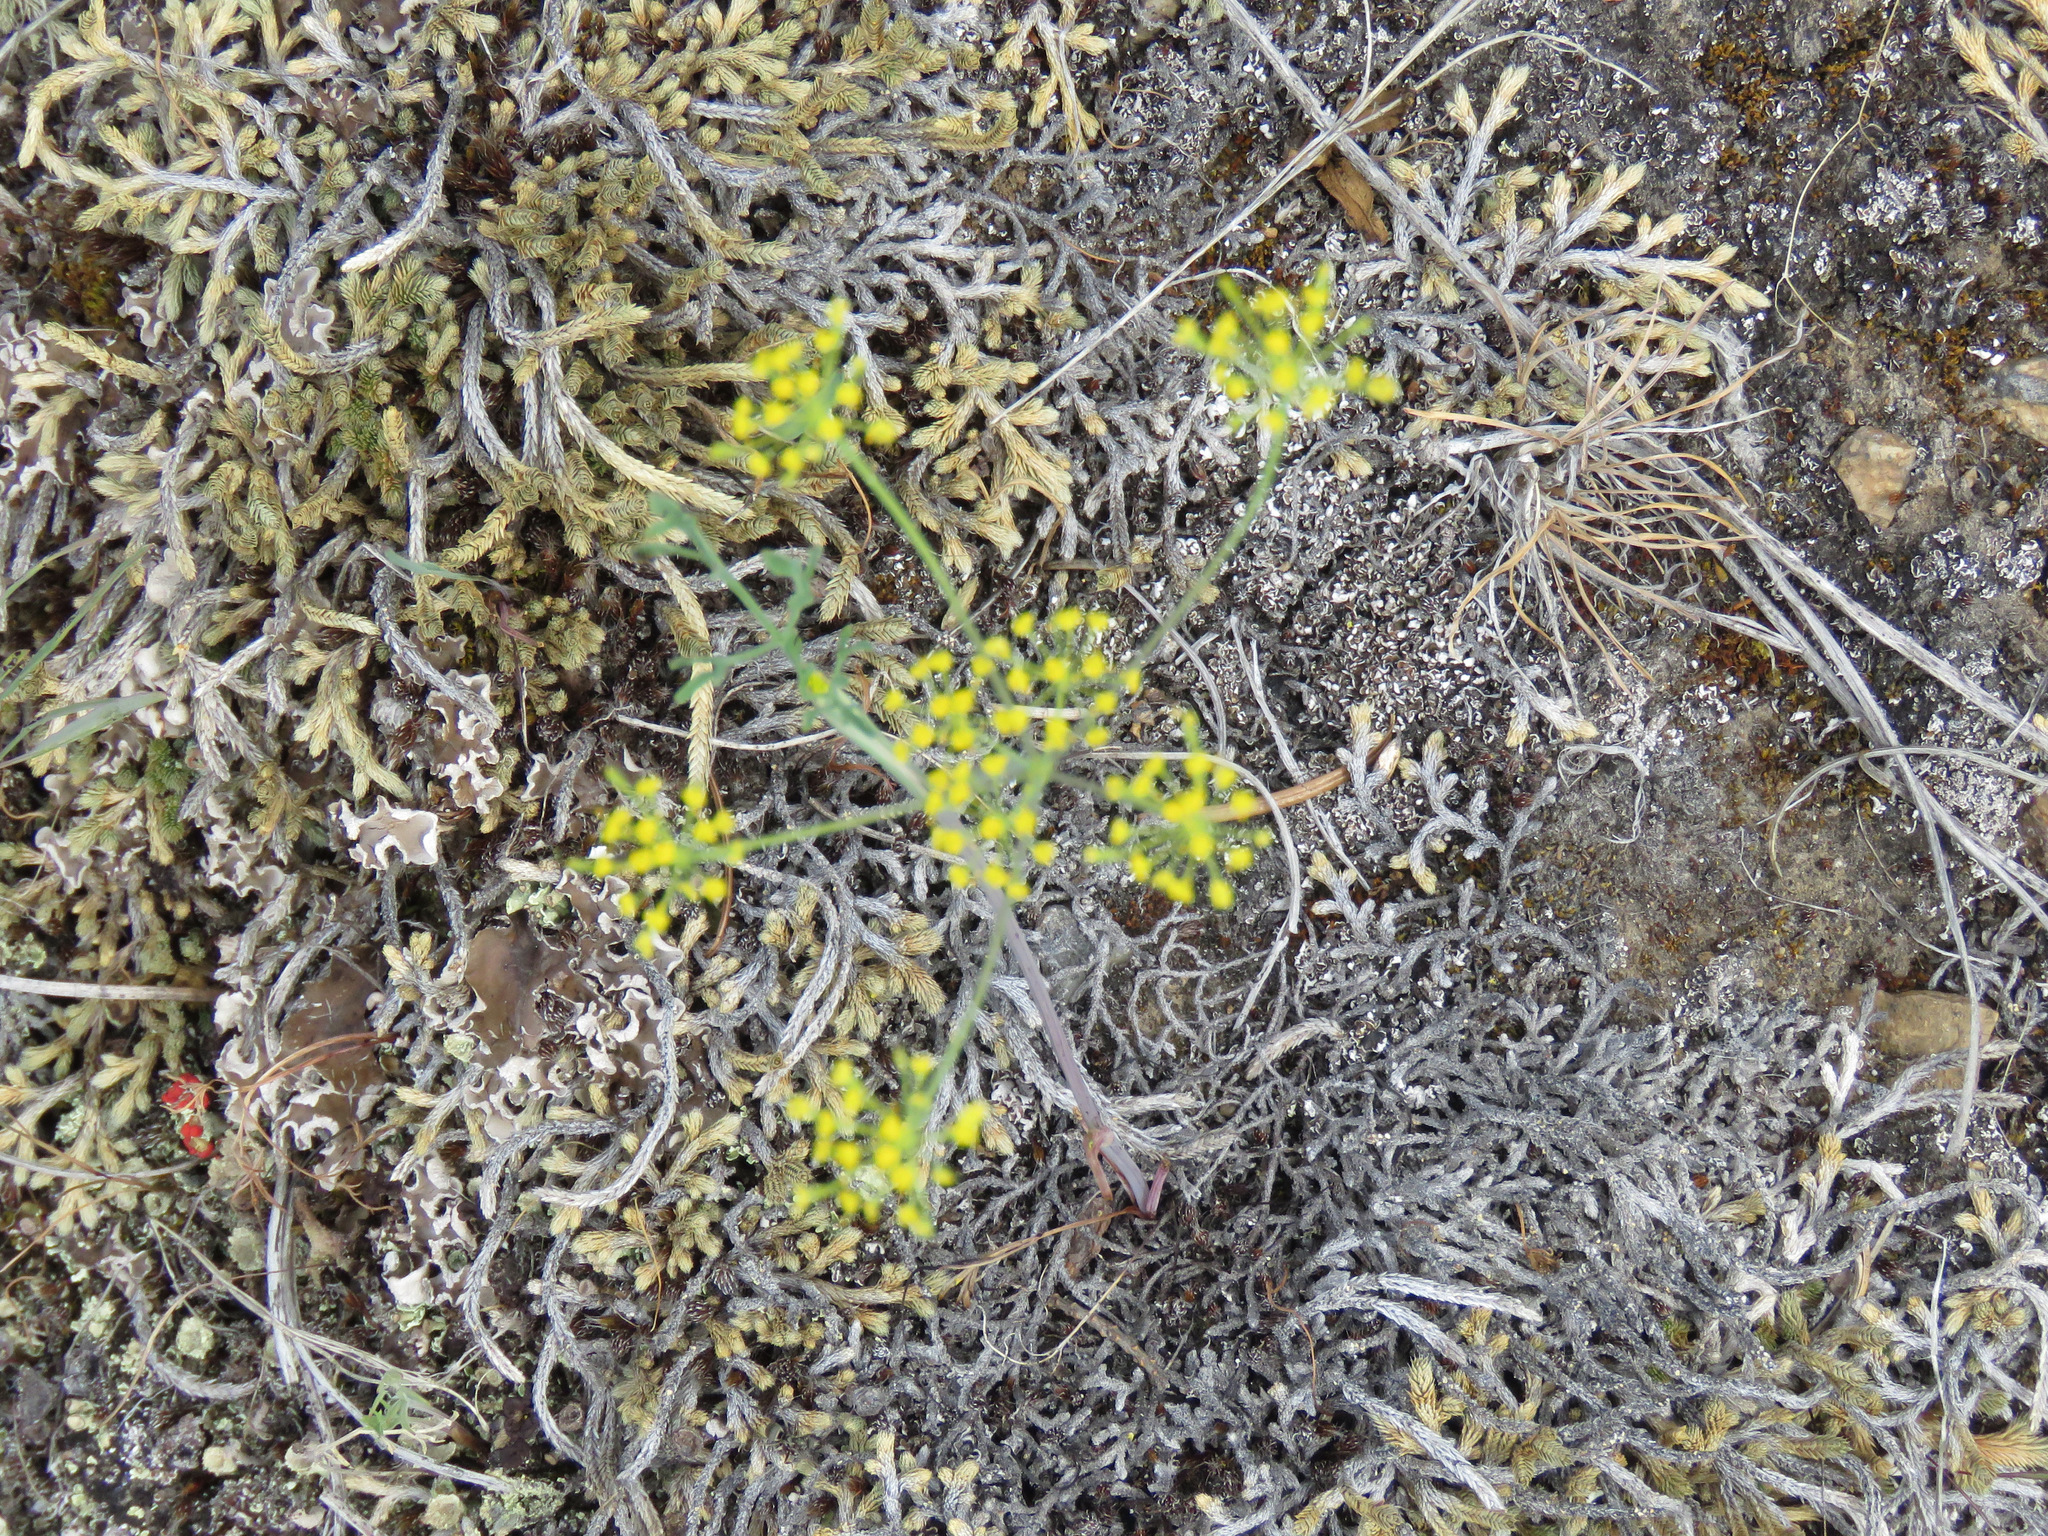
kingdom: Plantae
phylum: Tracheophyta
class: Magnoliopsida
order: Apiales
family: Apiaceae
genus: Lomatium
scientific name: Lomatium ambiguum
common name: Lacy lomatium
